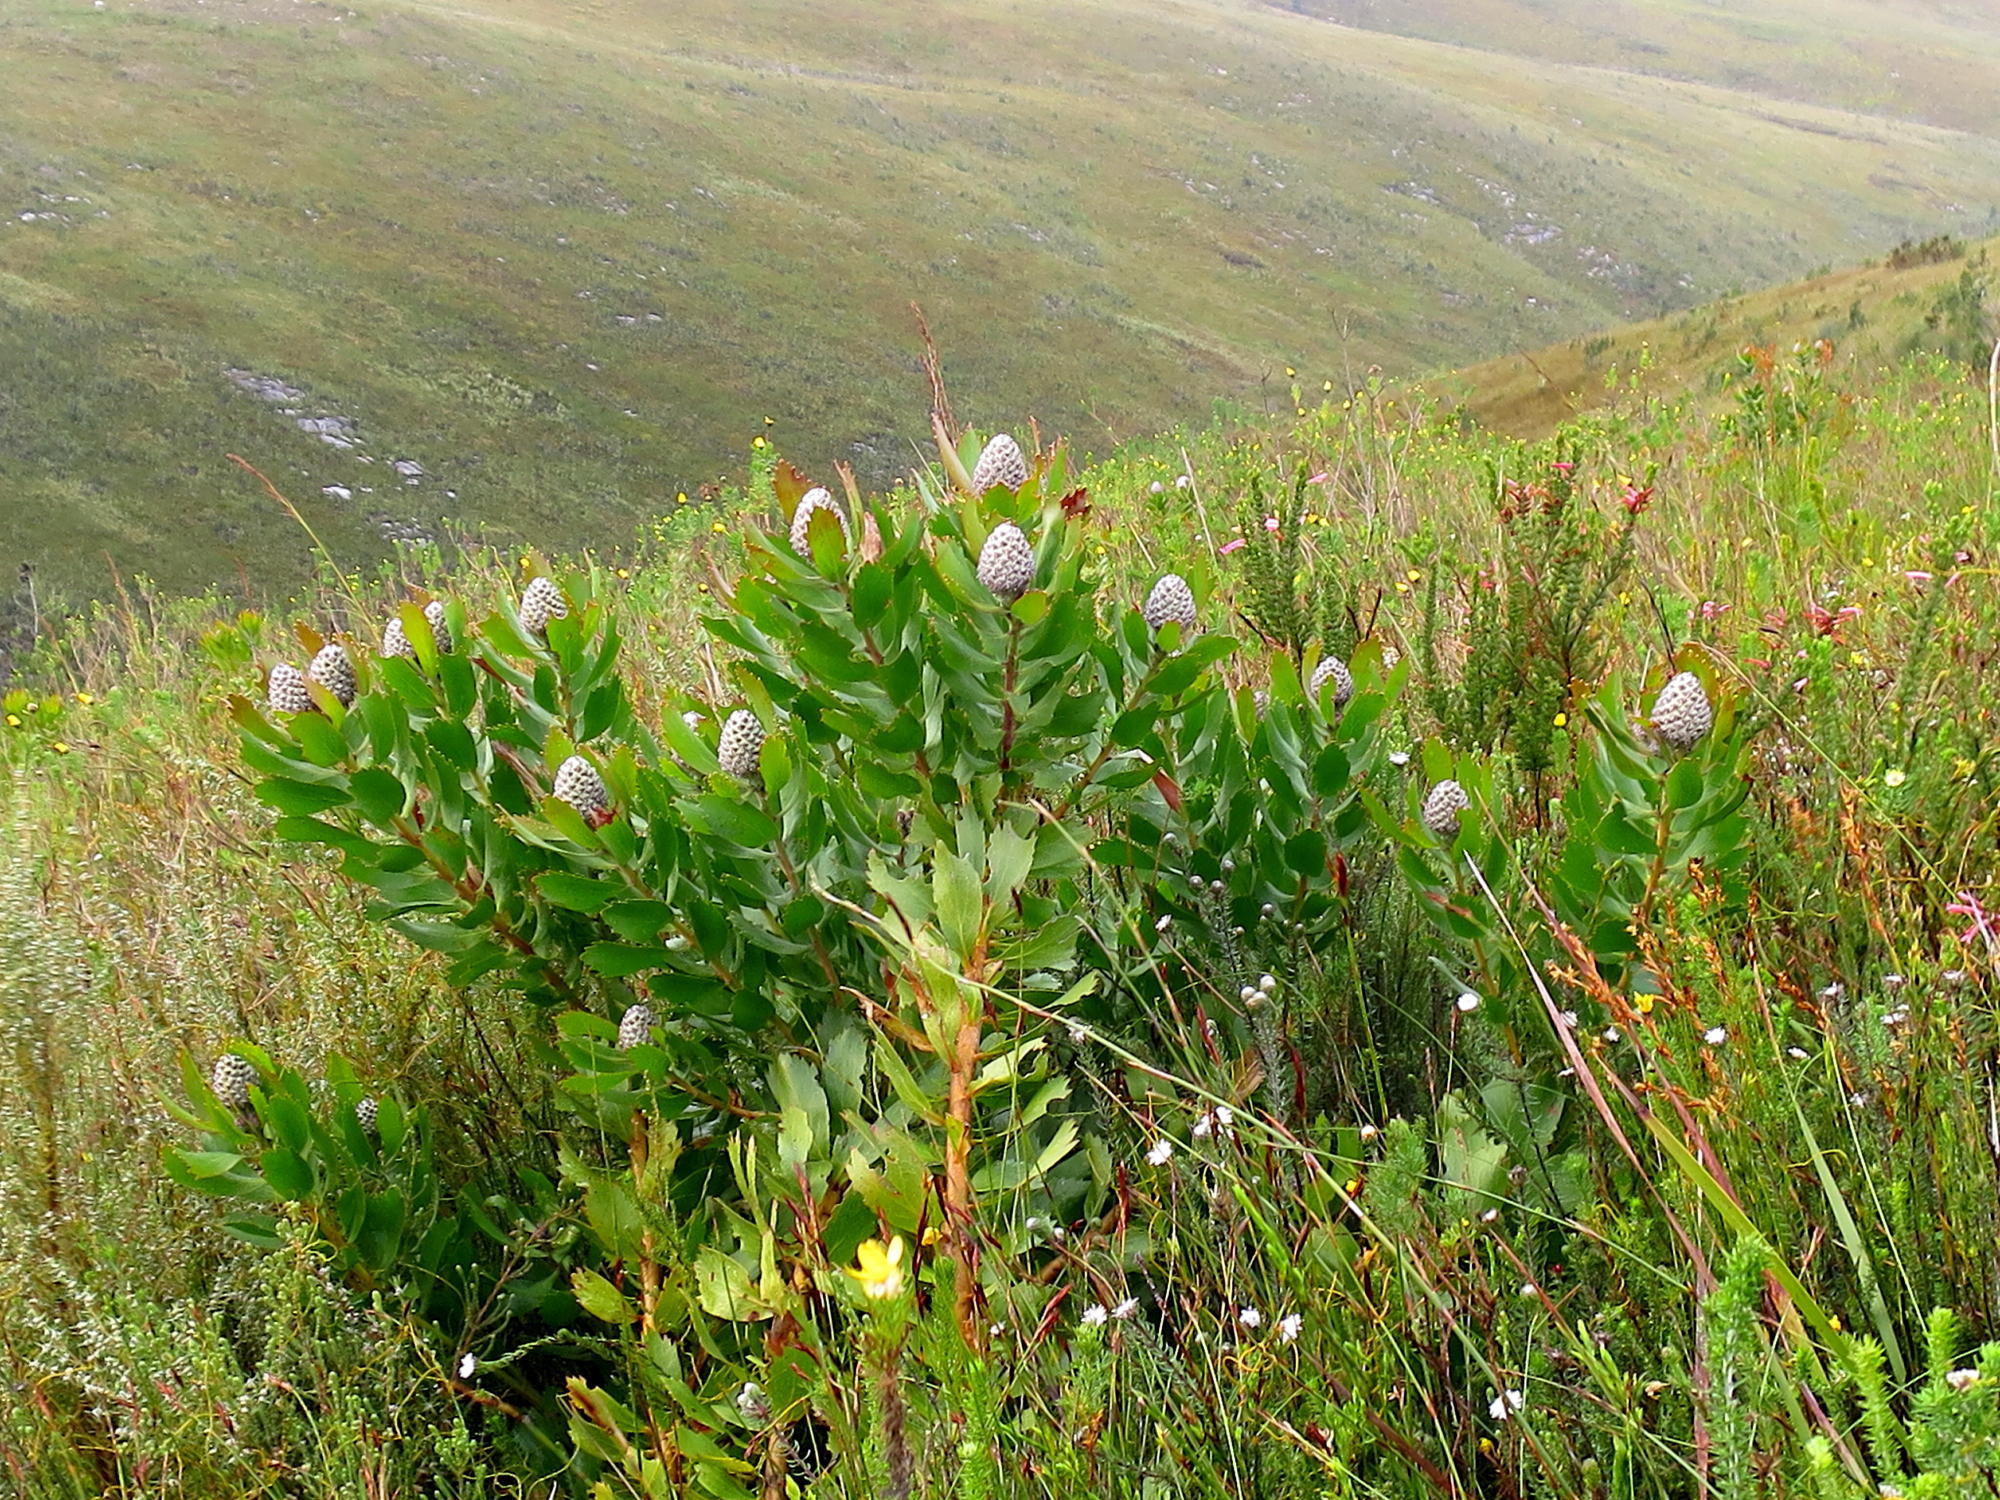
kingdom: Plantae
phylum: Tracheophyta
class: Magnoliopsida
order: Proteales
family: Proteaceae
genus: Leucospermum
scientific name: Leucospermum glabrum
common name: Outeniqua pincushion
